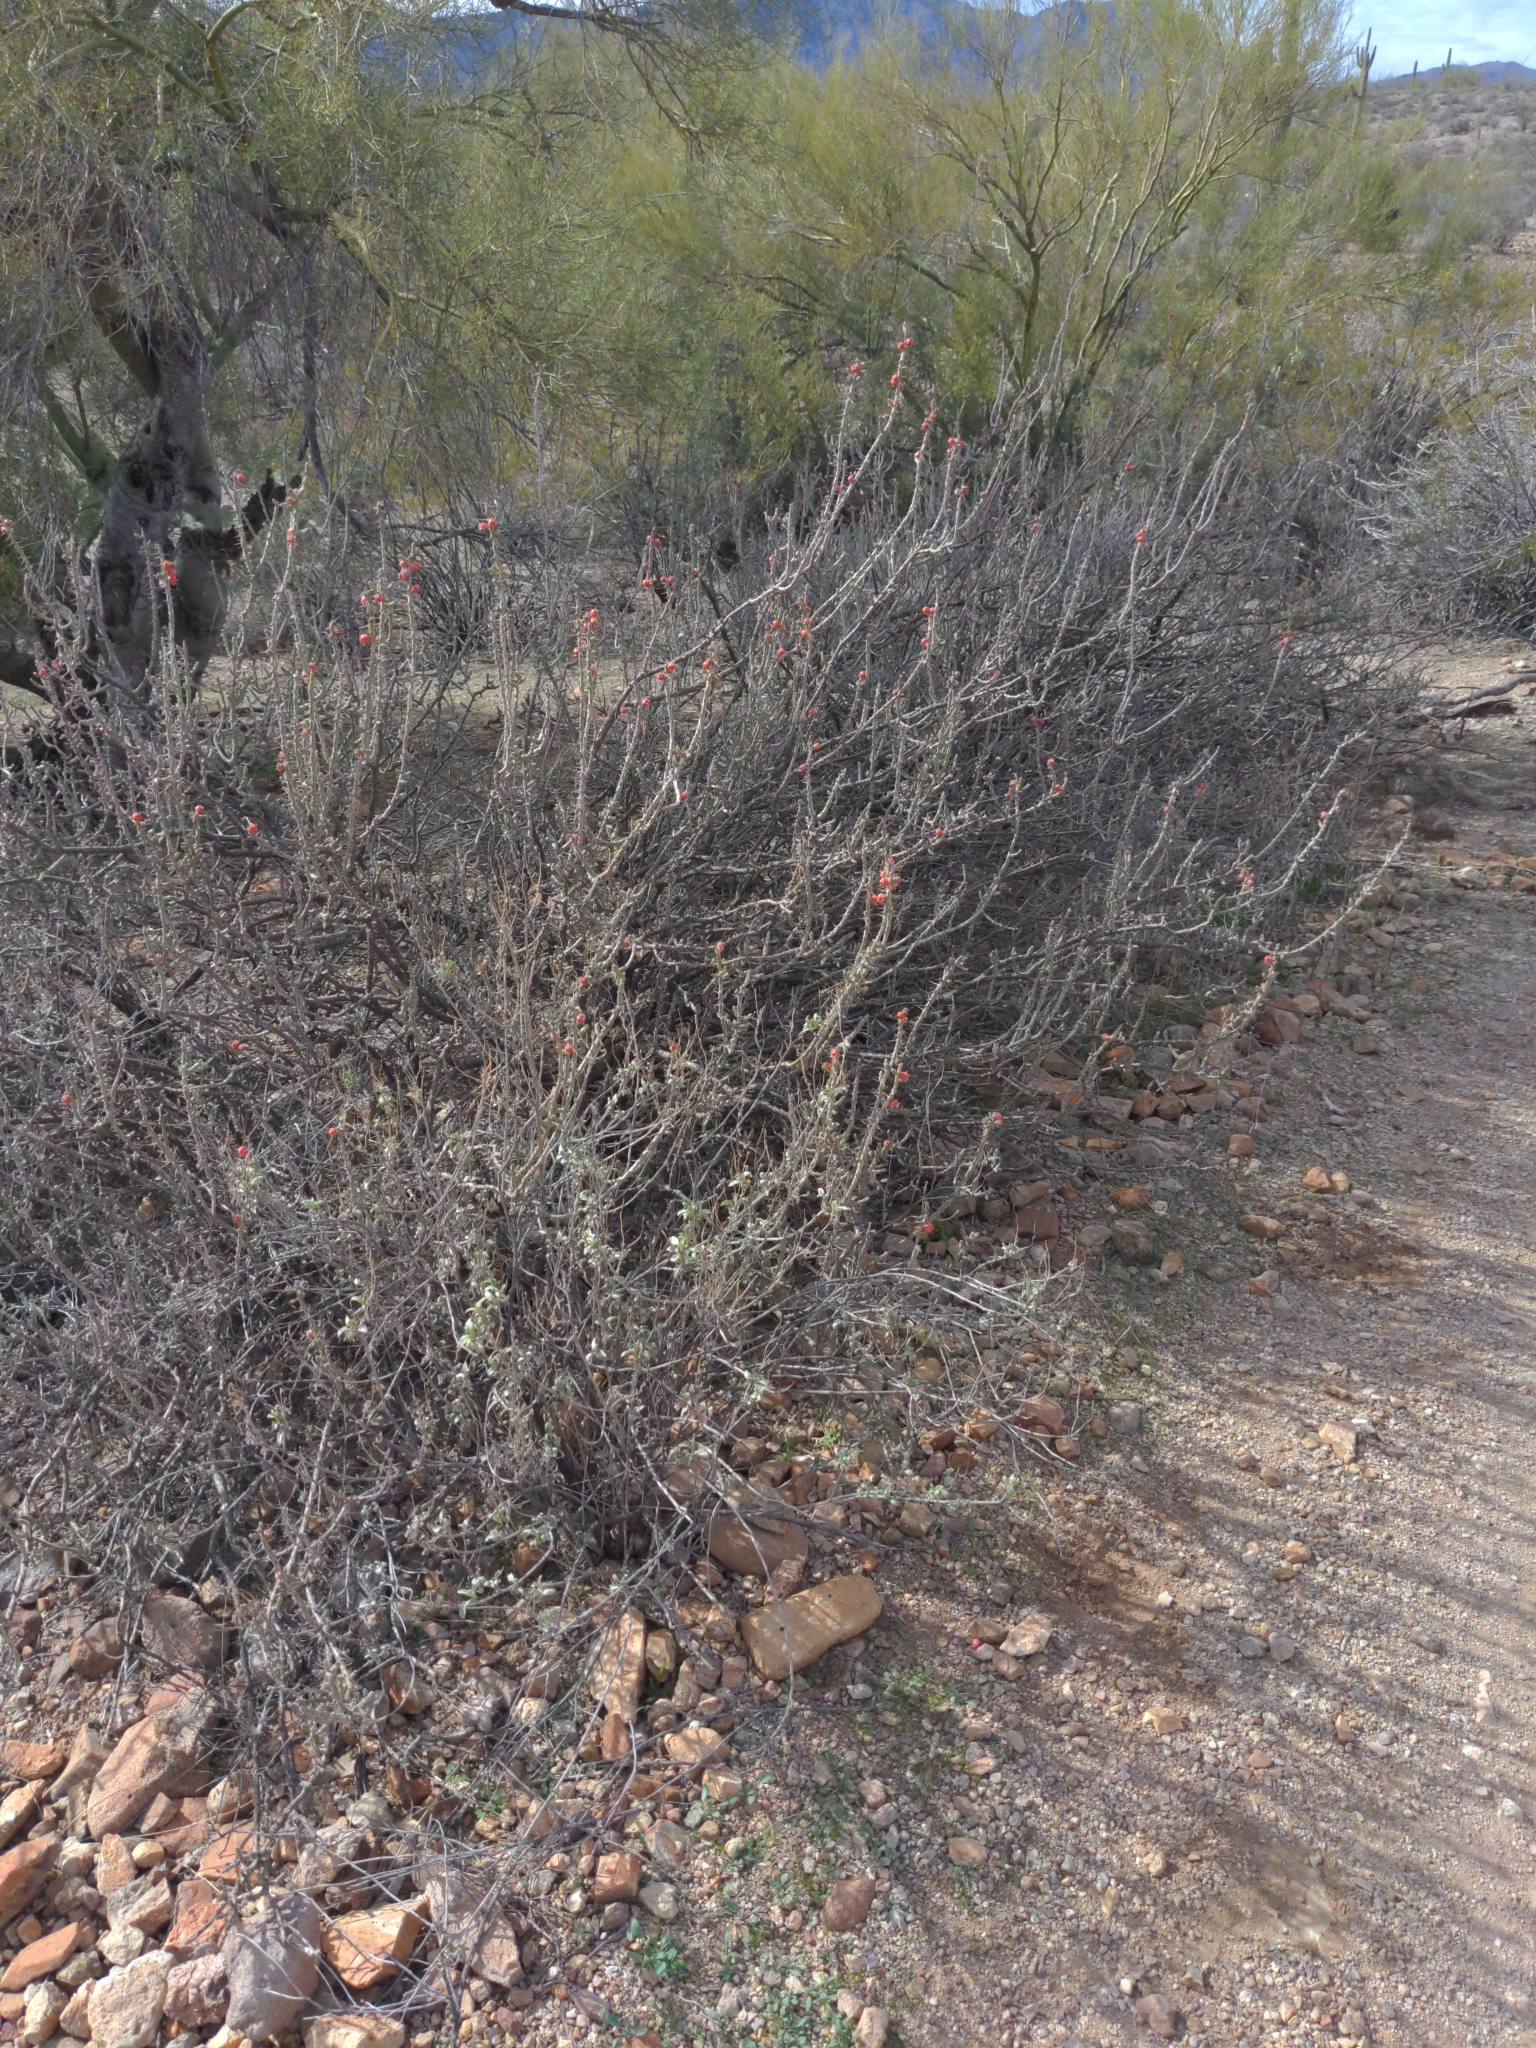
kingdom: Plantae
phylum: Tracheophyta
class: Magnoliopsida
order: Caryophyllales
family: Cactaceae
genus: Cylindropuntia
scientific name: Cylindropuntia leptocaulis
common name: Christmas cactus
